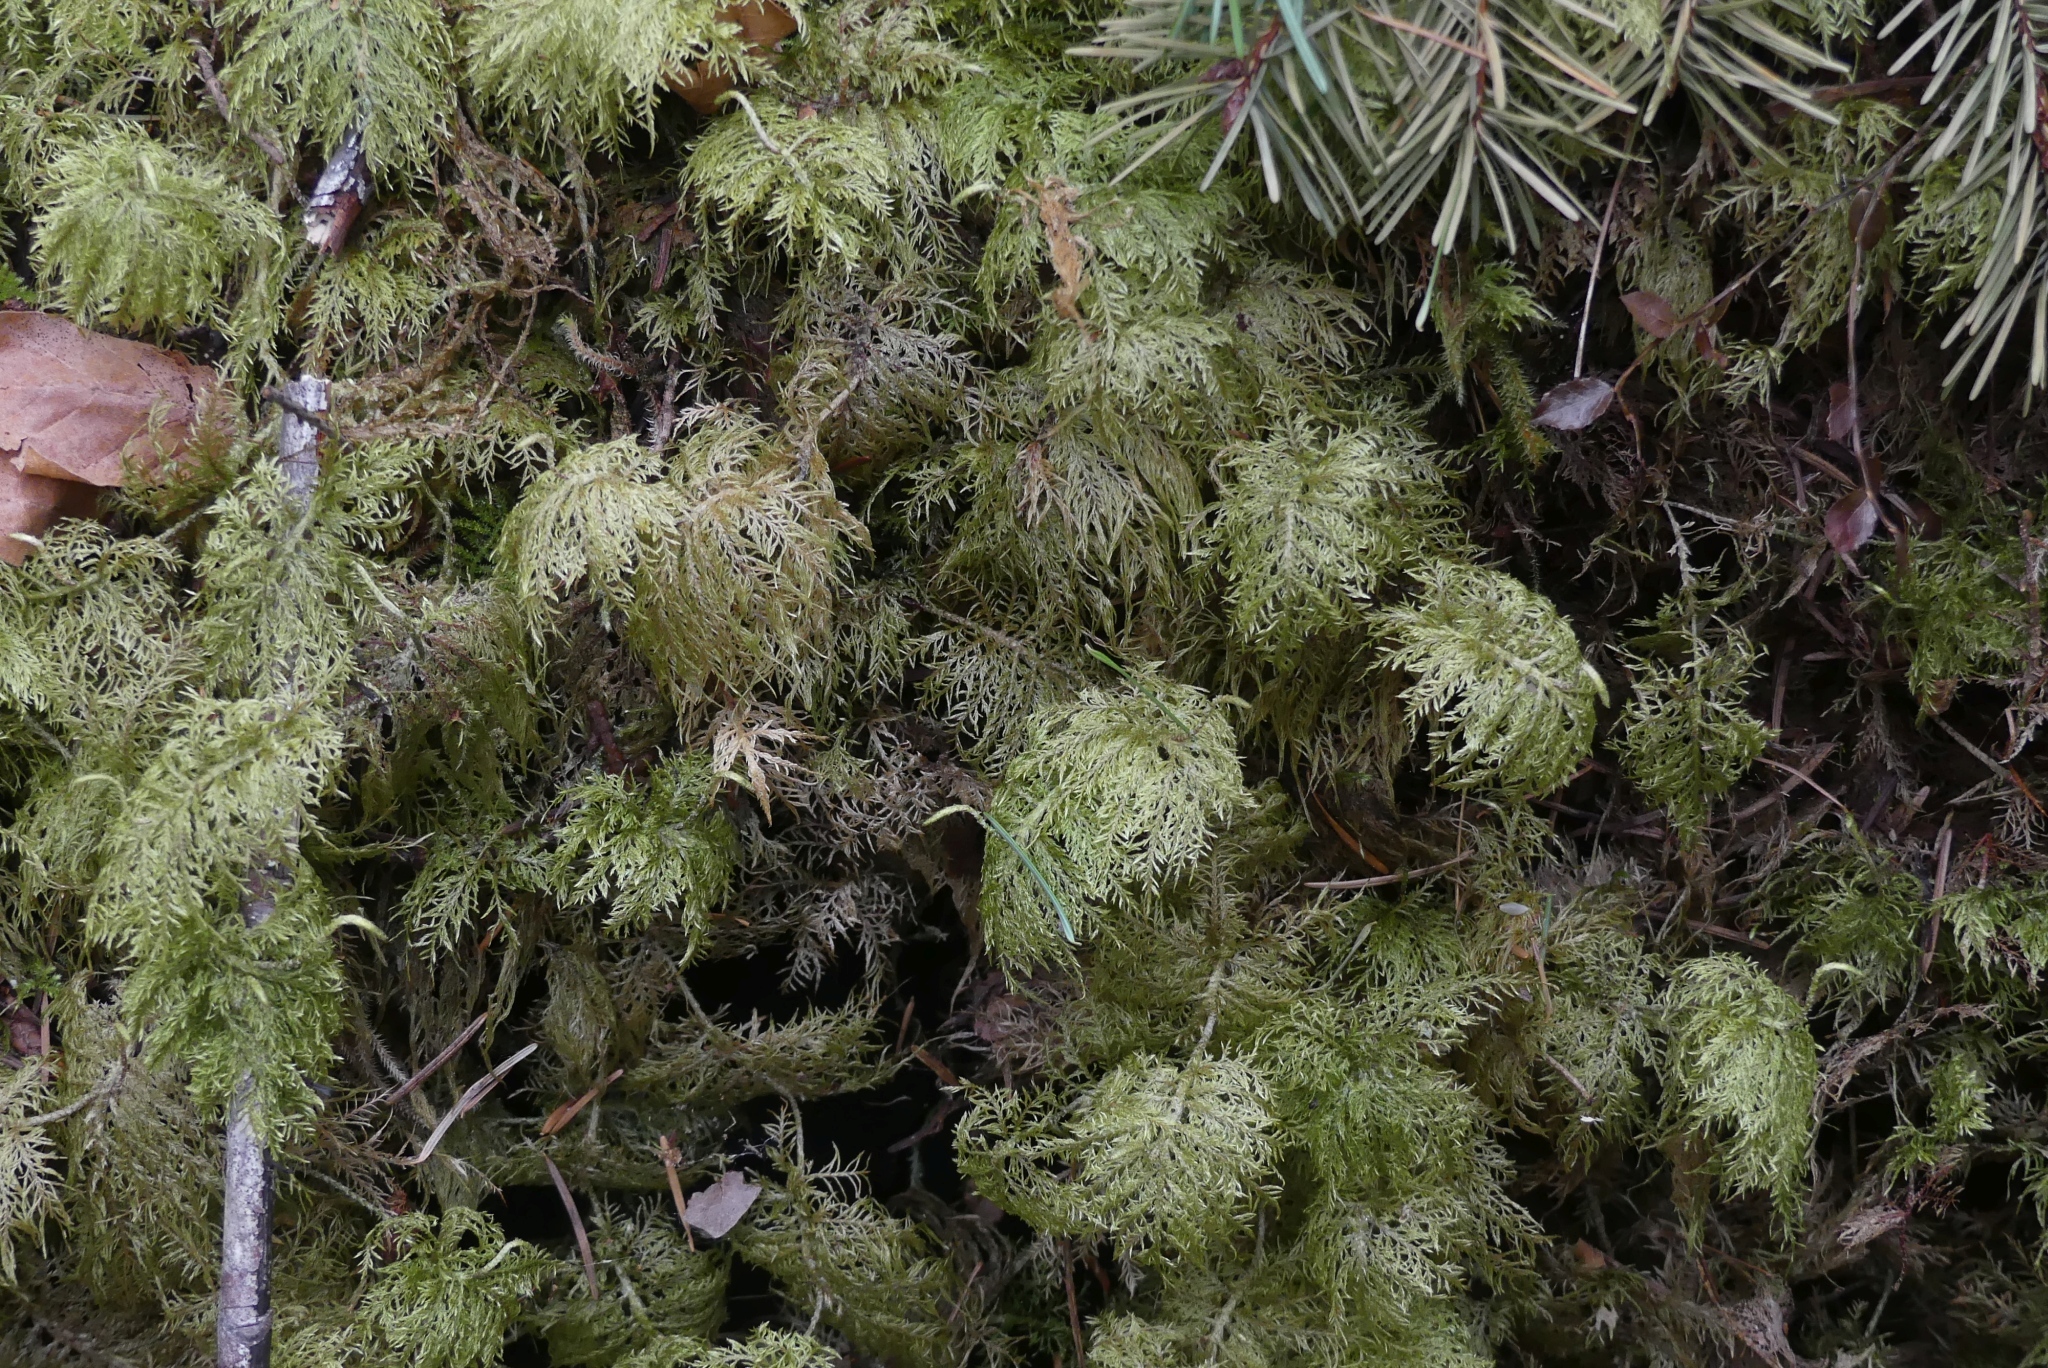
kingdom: Plantae
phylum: Bryophyta
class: Bryopsida
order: Hypnales
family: Hylocomiaceae
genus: Hylocomium
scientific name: Hylocomium splendens
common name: Stairstep moss
